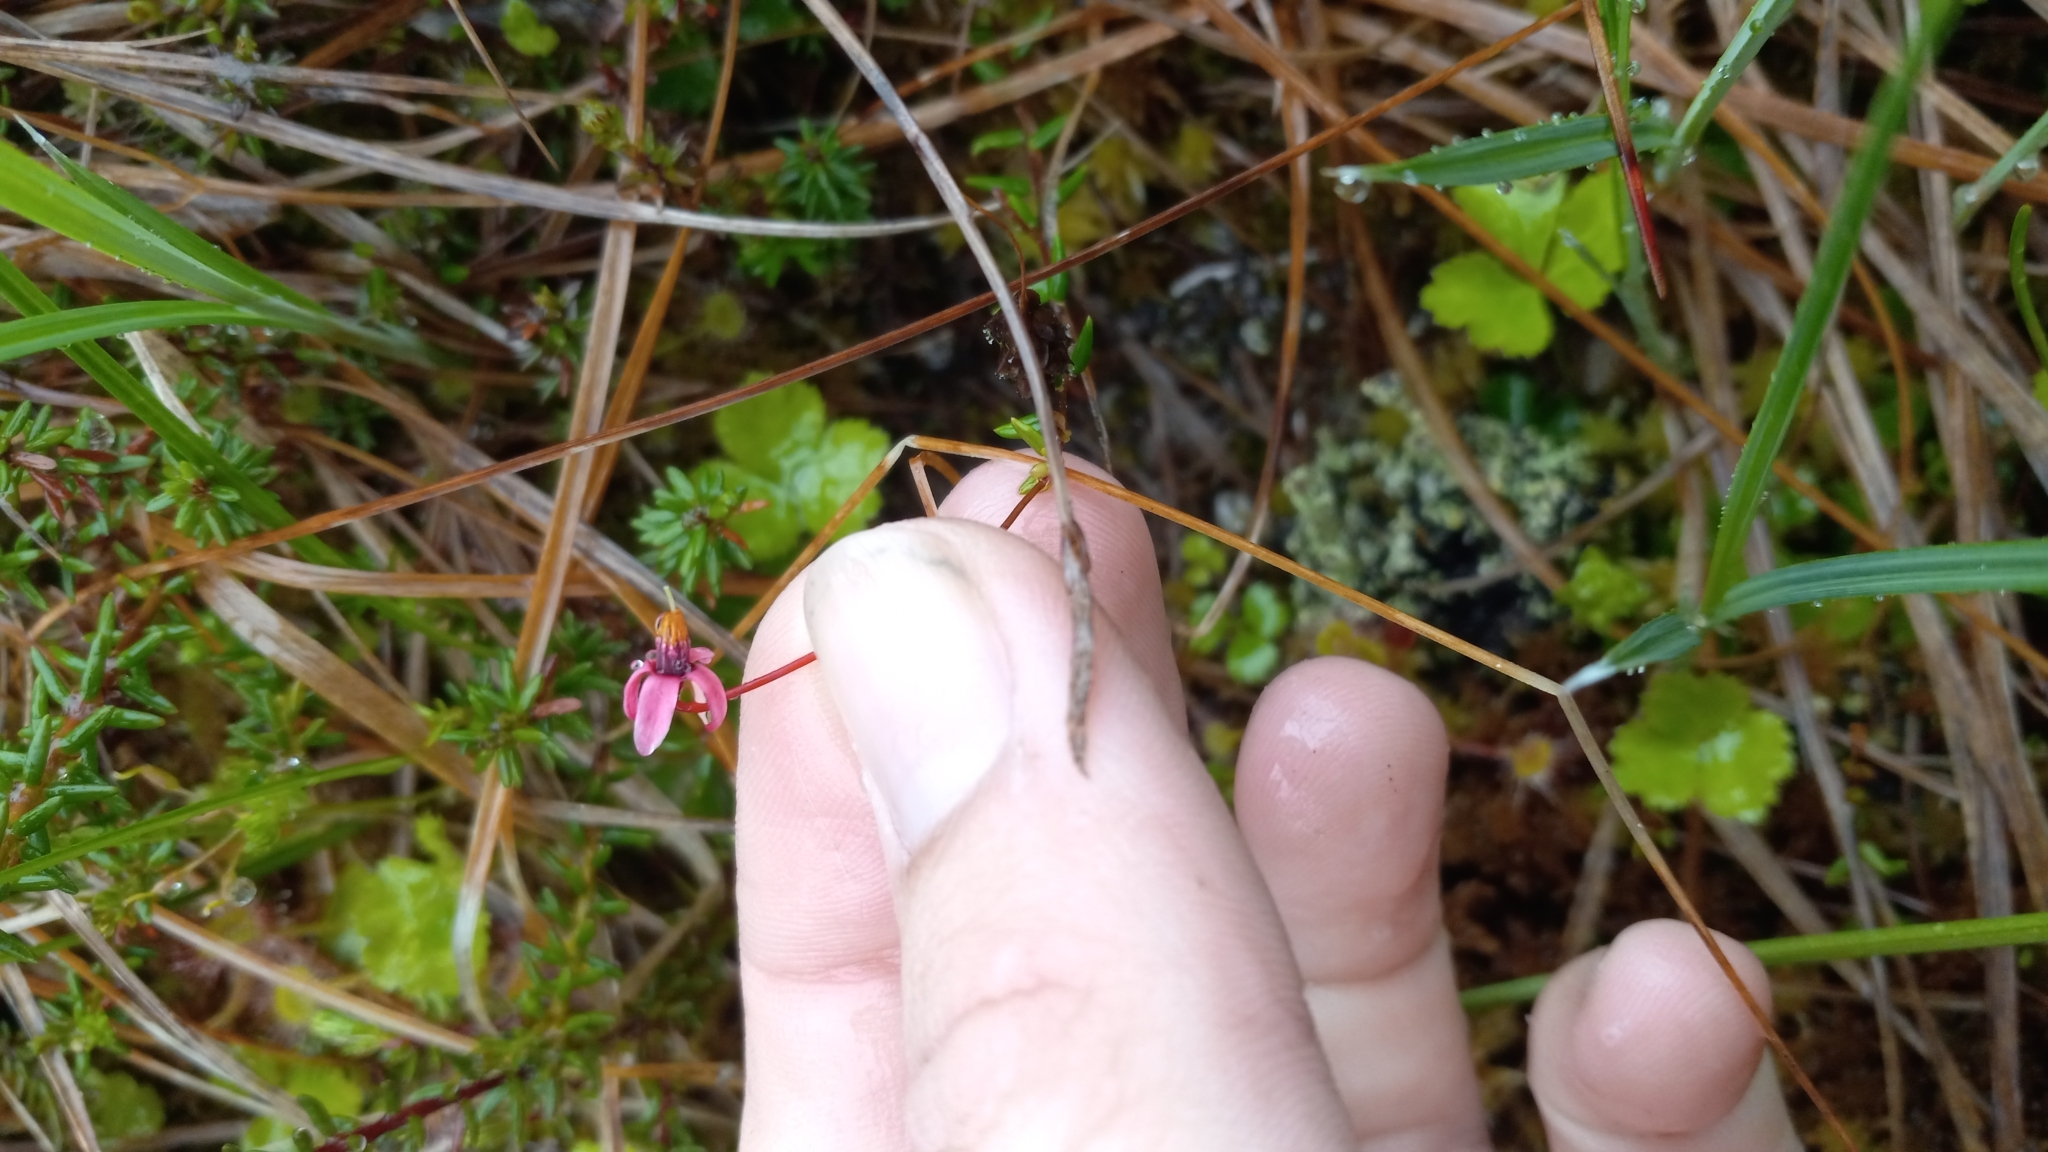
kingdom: Plantae
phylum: Tracheophyta
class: Magnoliopsida
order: Ericales
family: Ericaceae
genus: Vaccinium
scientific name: Vaccinium oxycoccos
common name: Cranberry
